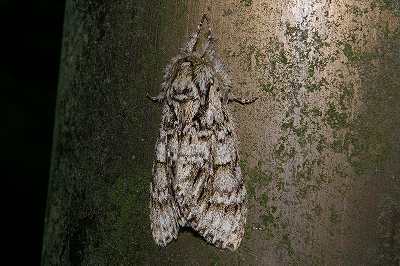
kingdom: Animalia
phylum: Arthropoda
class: Insecta
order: Lepidoptera
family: Notodontidae
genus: Pheosiopsis
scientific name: Pheosiopsis cinerea
